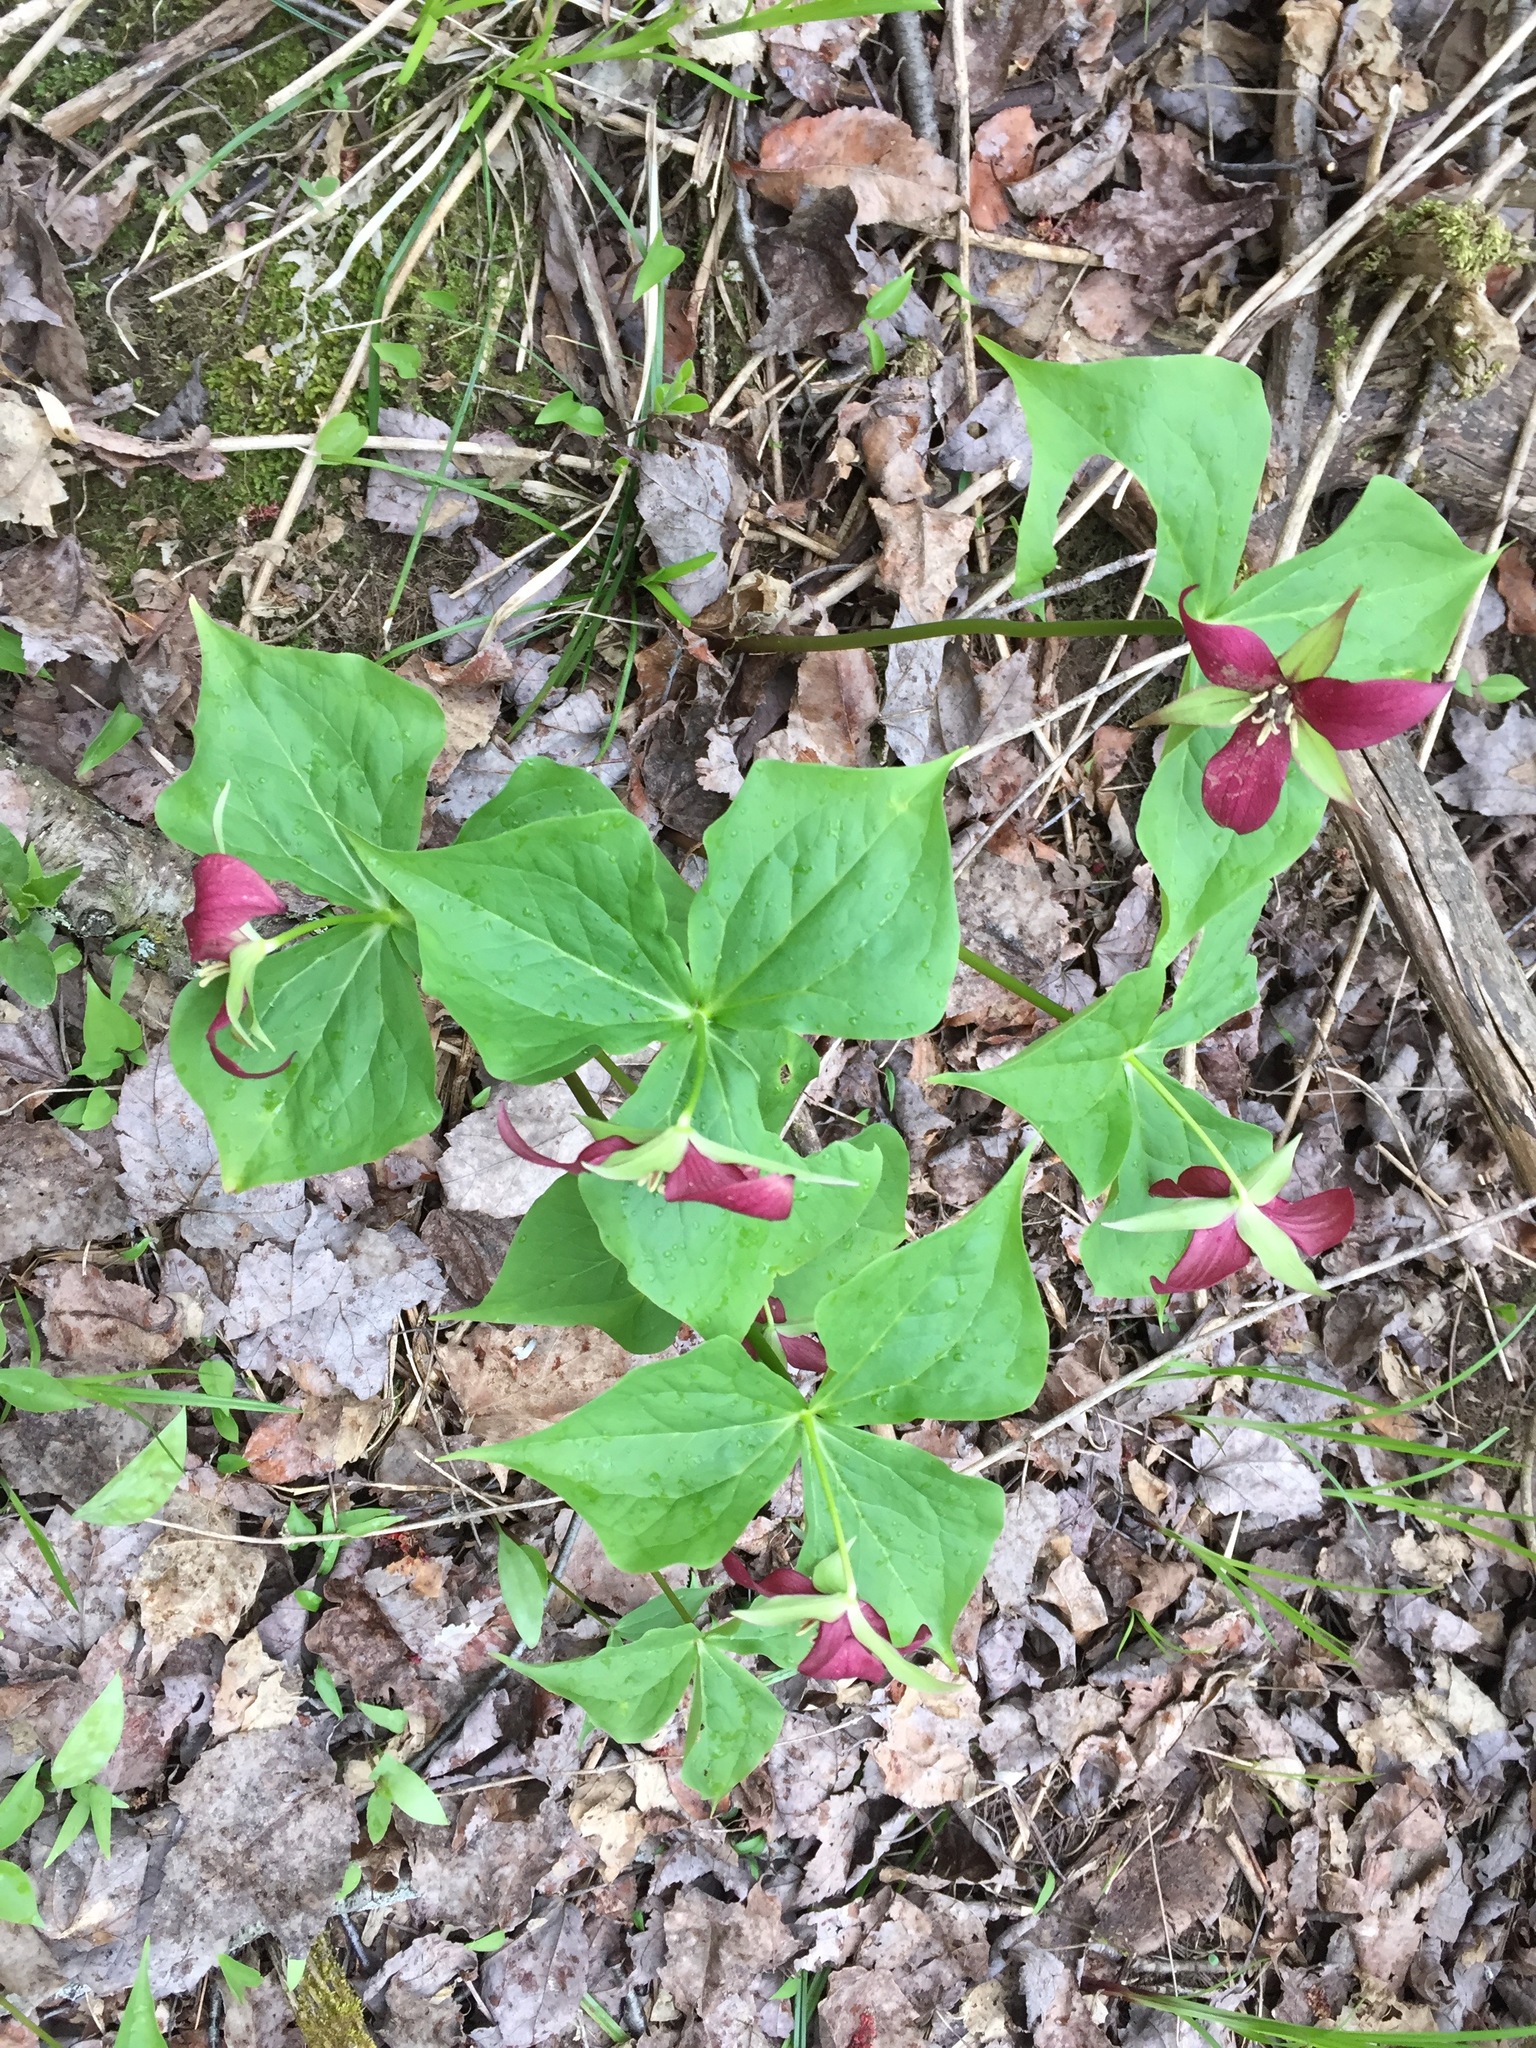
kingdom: Plantae
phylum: Tracheophyta
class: Liliopsida
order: Liliales
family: Melanthiaceae
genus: Trillium
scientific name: Trillium erectum
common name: Purple trillium
